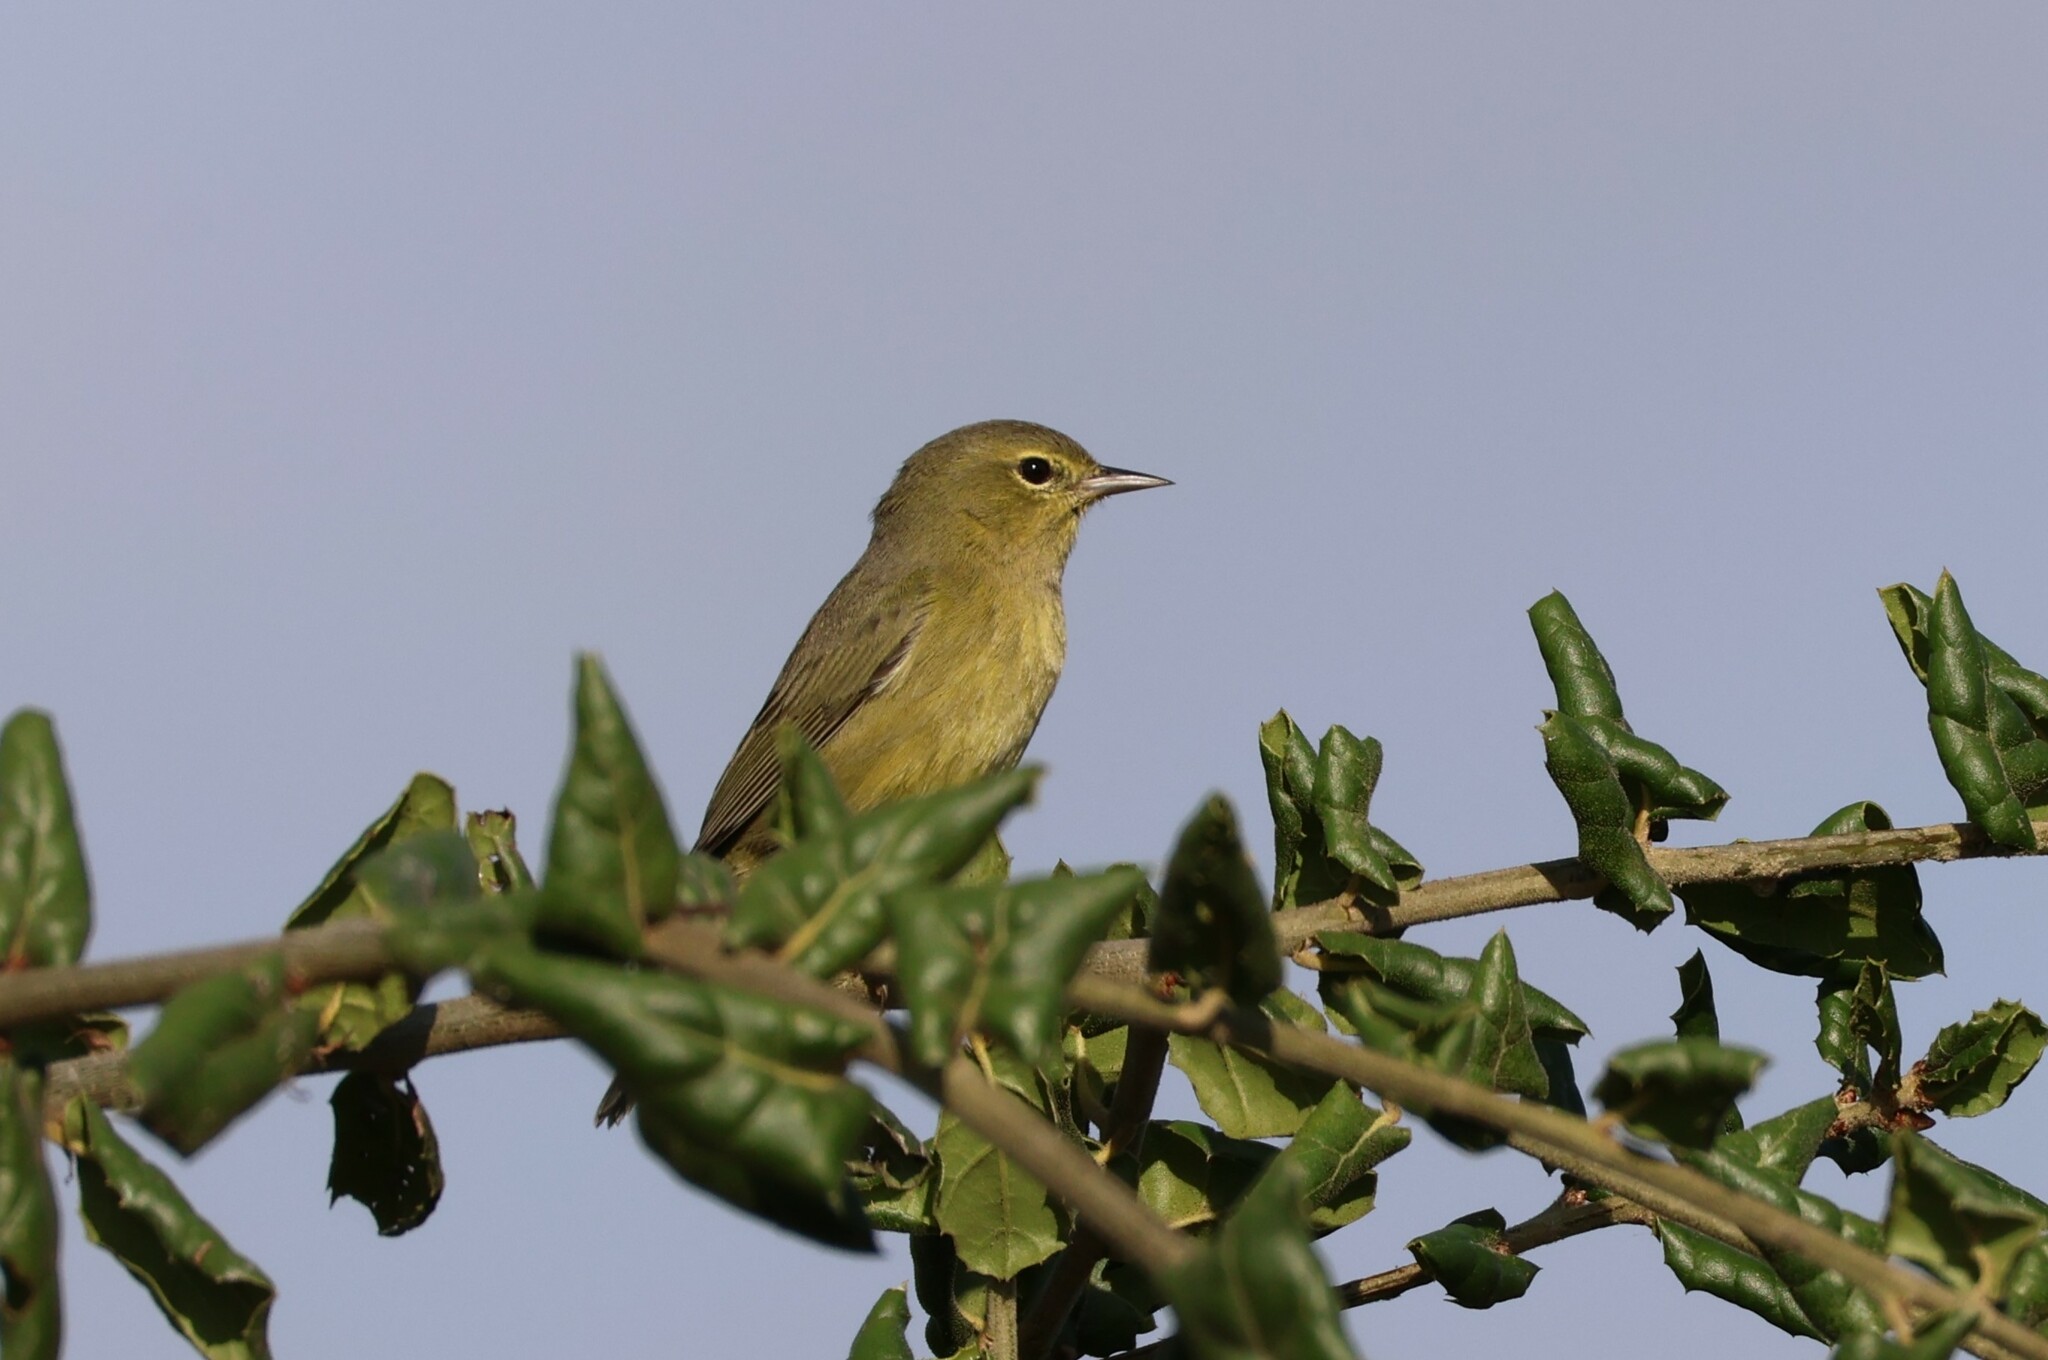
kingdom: Animalia
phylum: Chordata
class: Aves
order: Passeriformes
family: Parulidae
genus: Leiothlypis
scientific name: Leiothlypis celata
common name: Orange-crowned warbler
